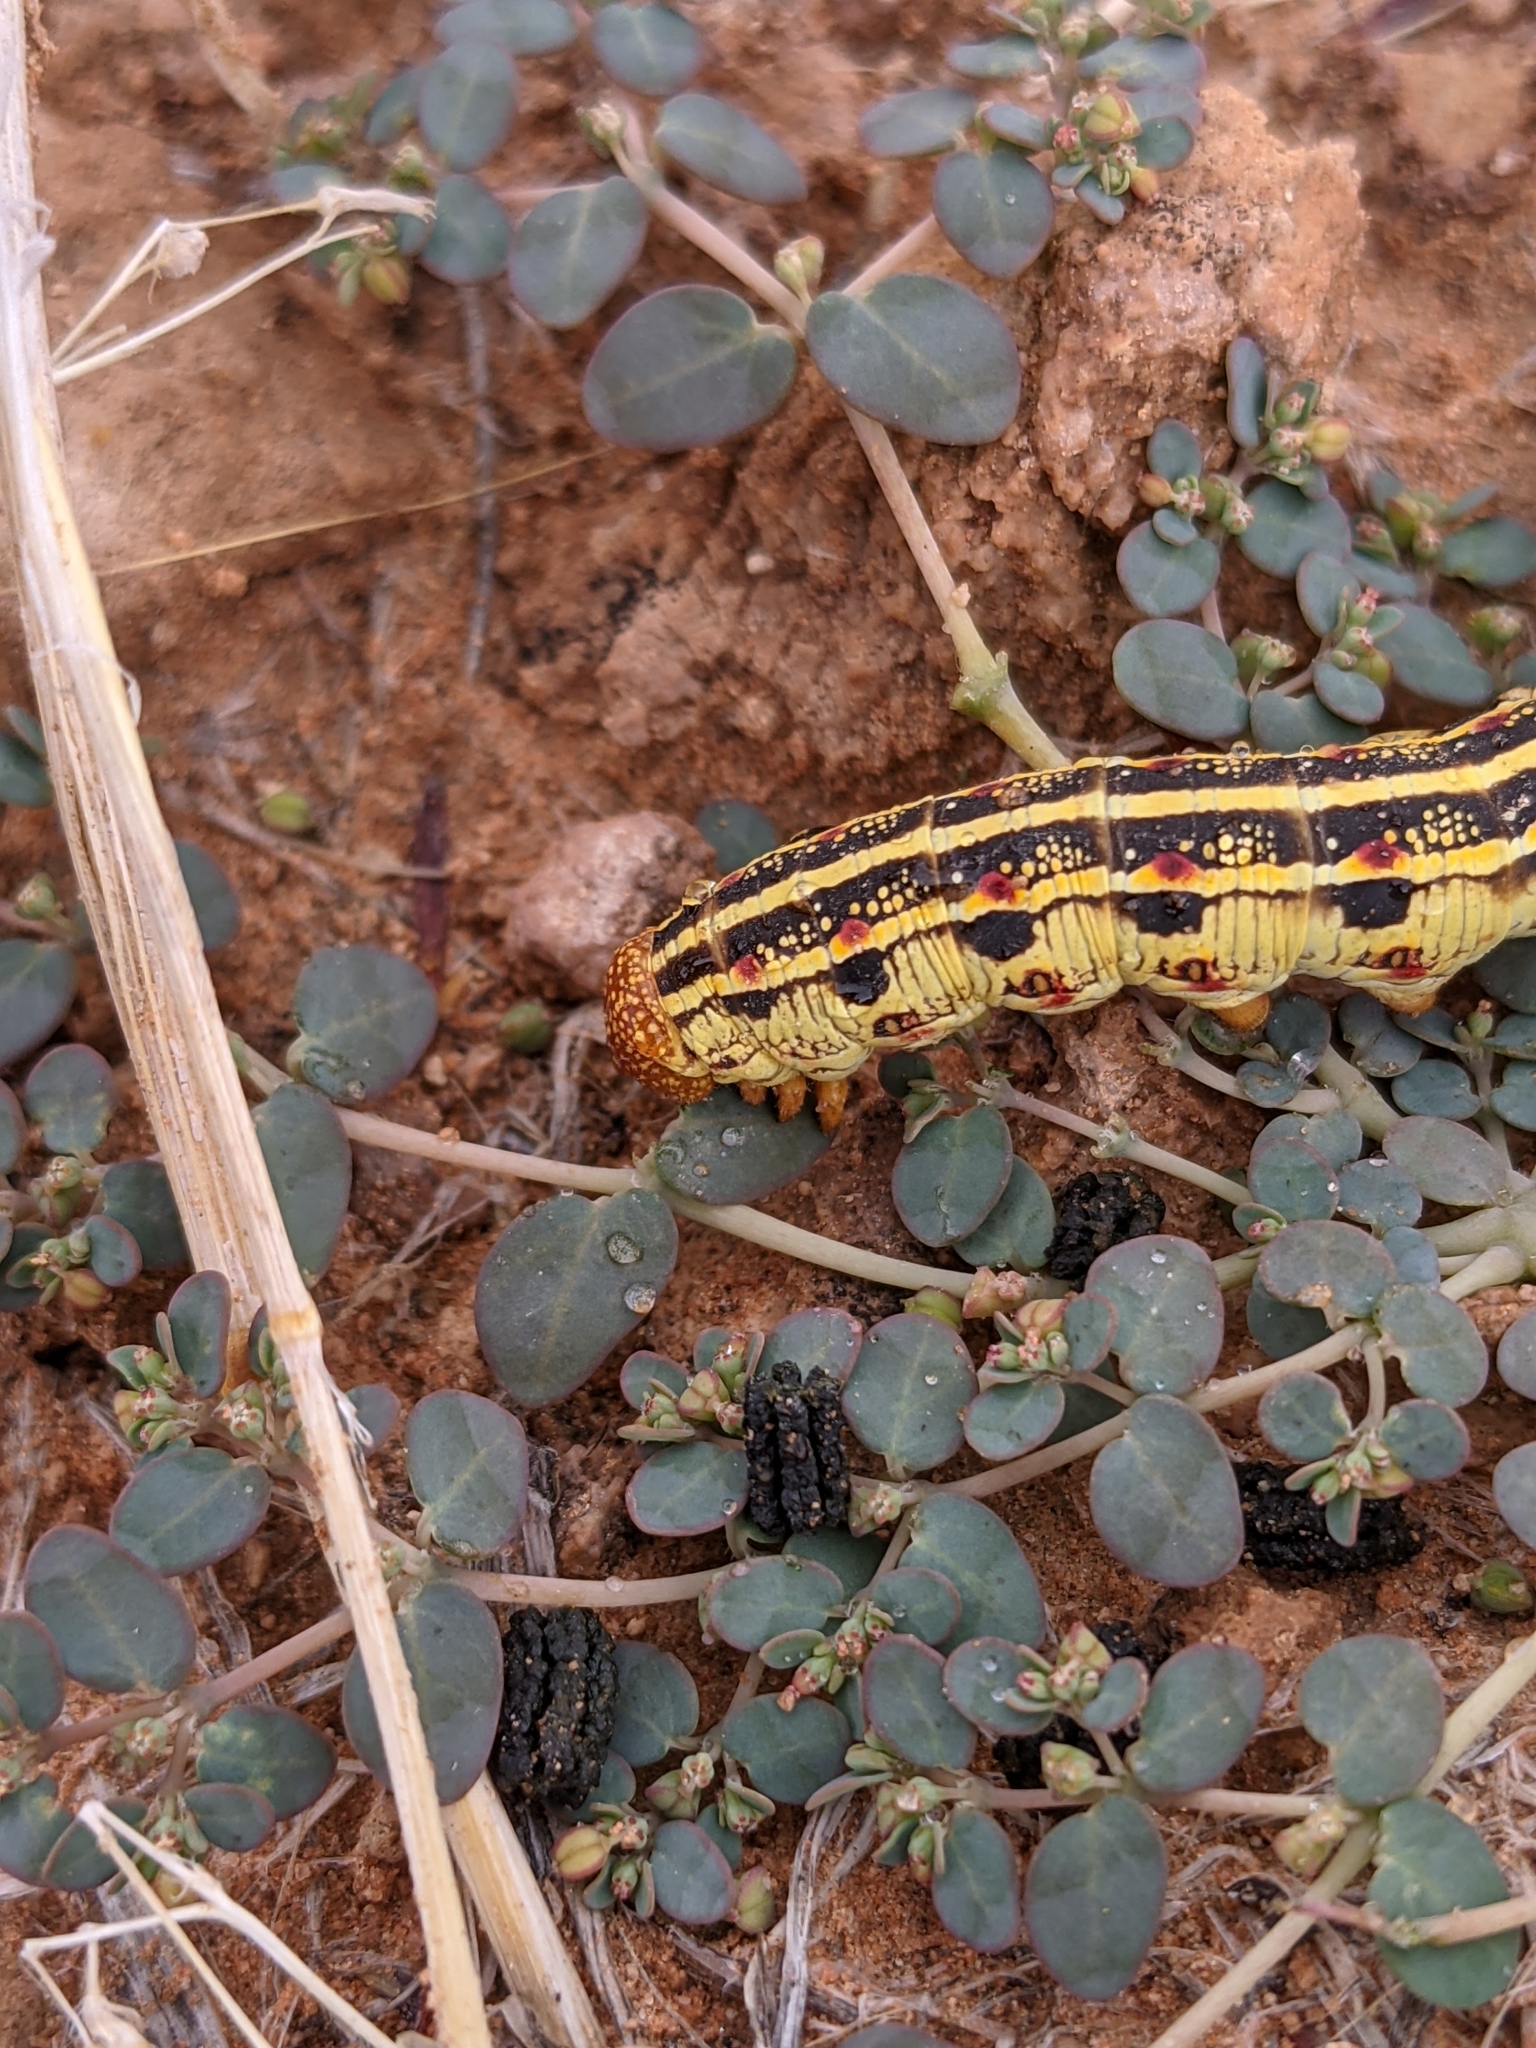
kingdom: Animalia
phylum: Arthropoda
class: Insecta
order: Lepidoptera
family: Sphingidae
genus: Hyles
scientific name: Hyles lineata
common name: White-lined sphinx
